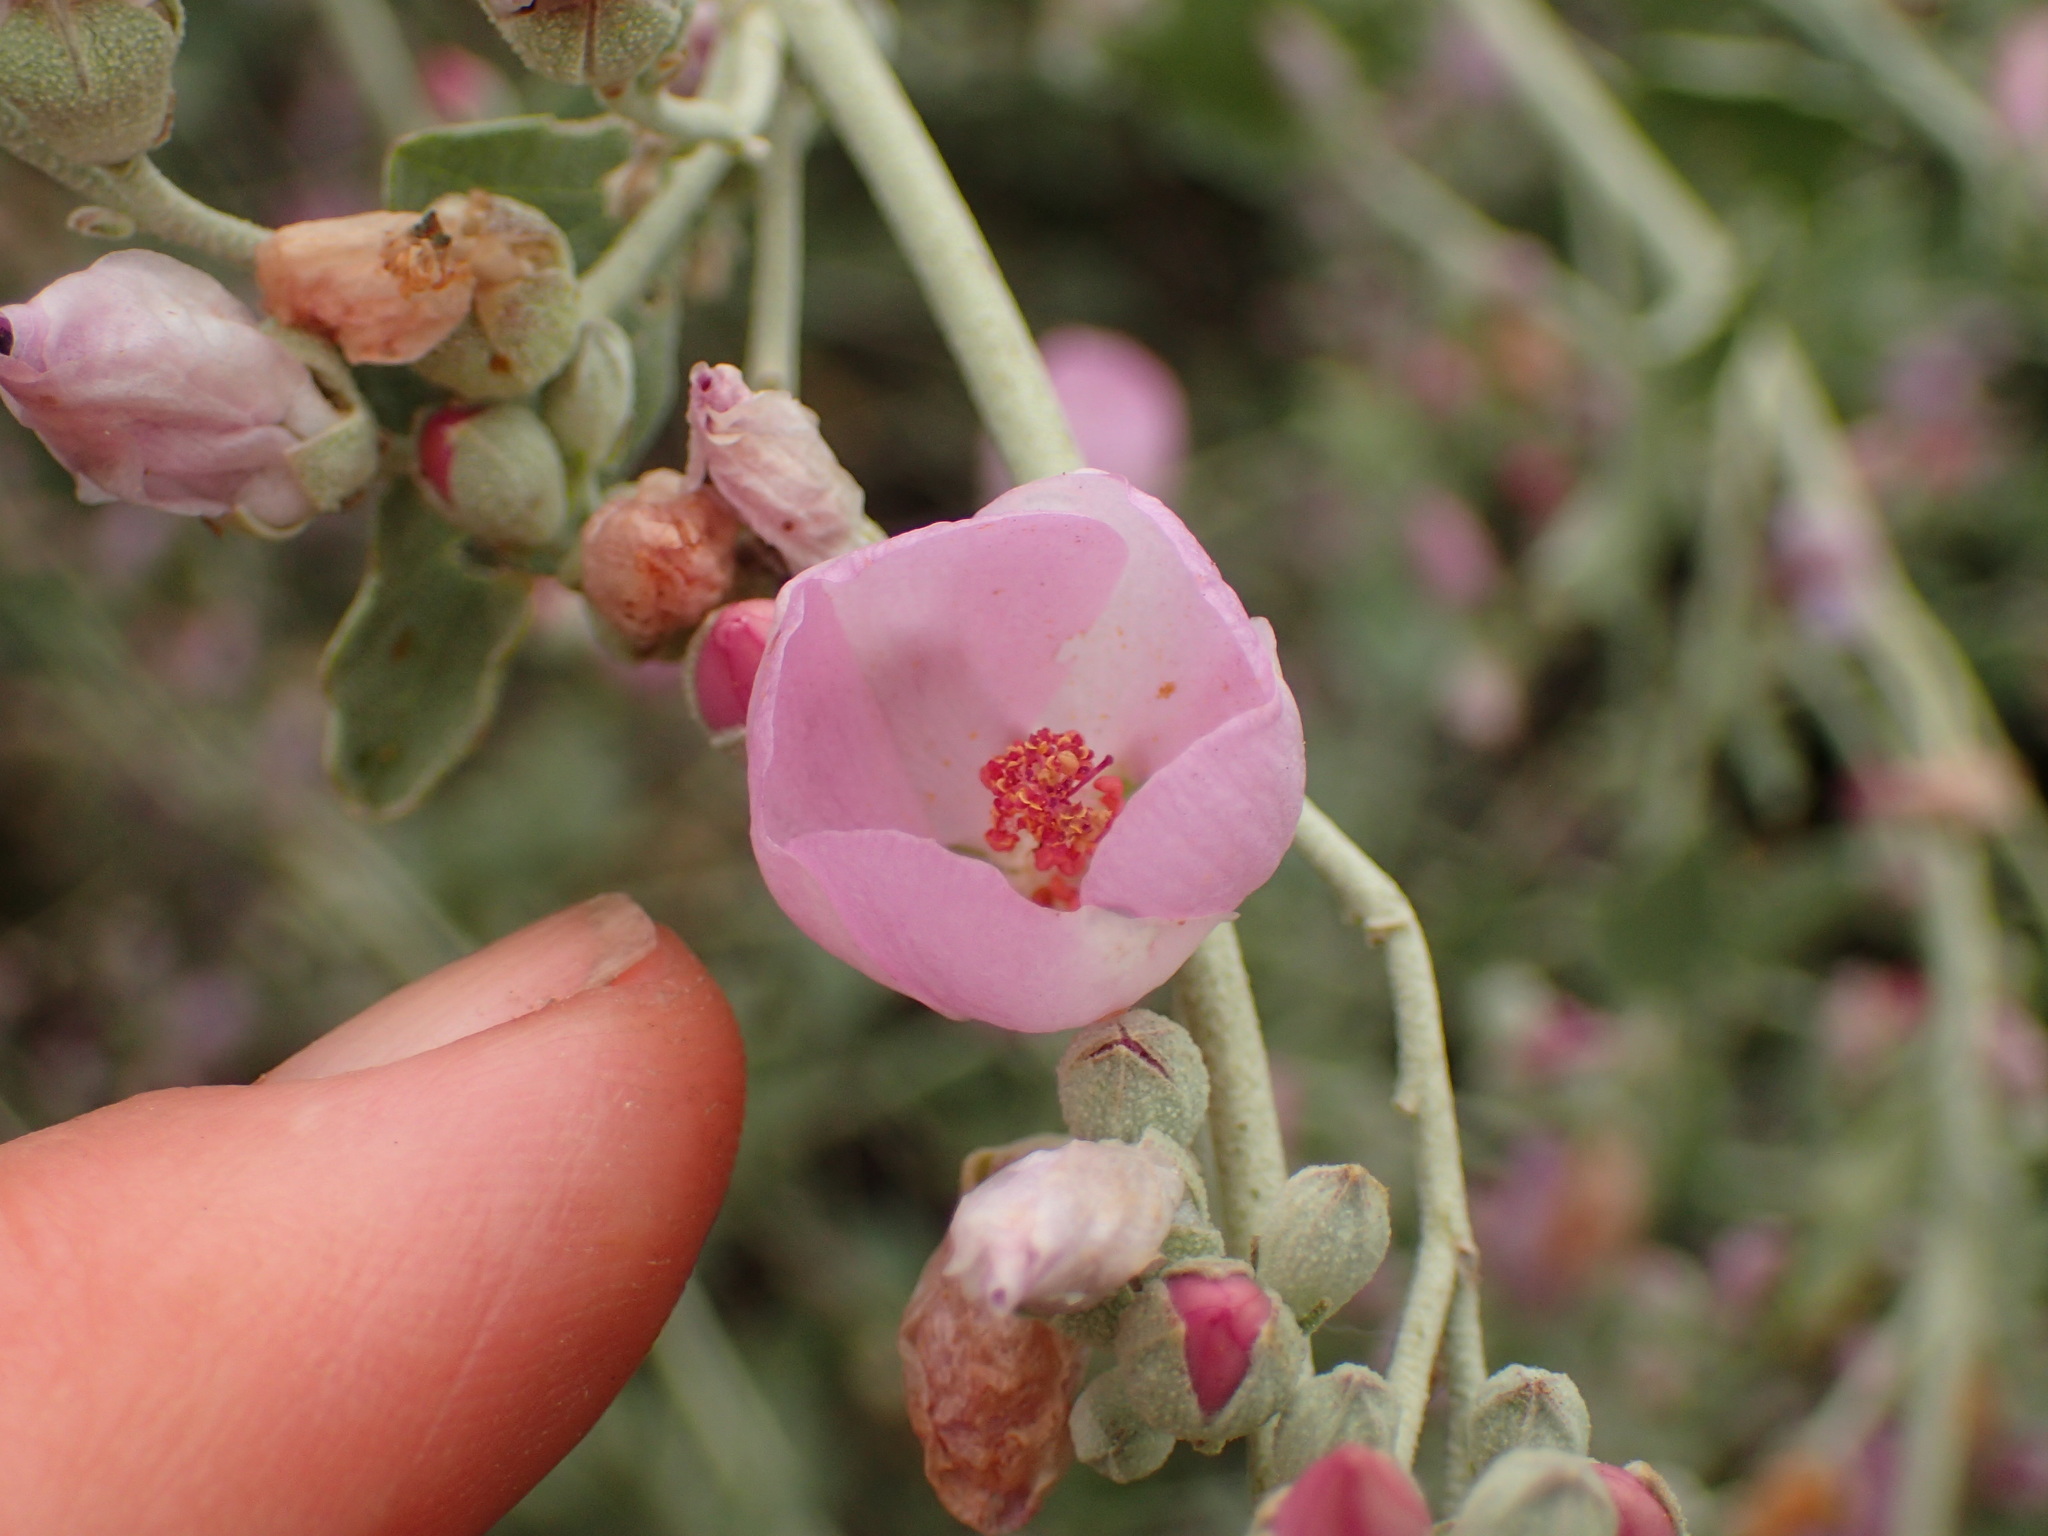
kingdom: Plantae
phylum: Tracheophyta
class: Magnoliopsida
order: Malvales
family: Malvaceae
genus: Malacothamnus
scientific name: Malacothamnus fasciculatus
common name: Sant cruz island bush-mallow
